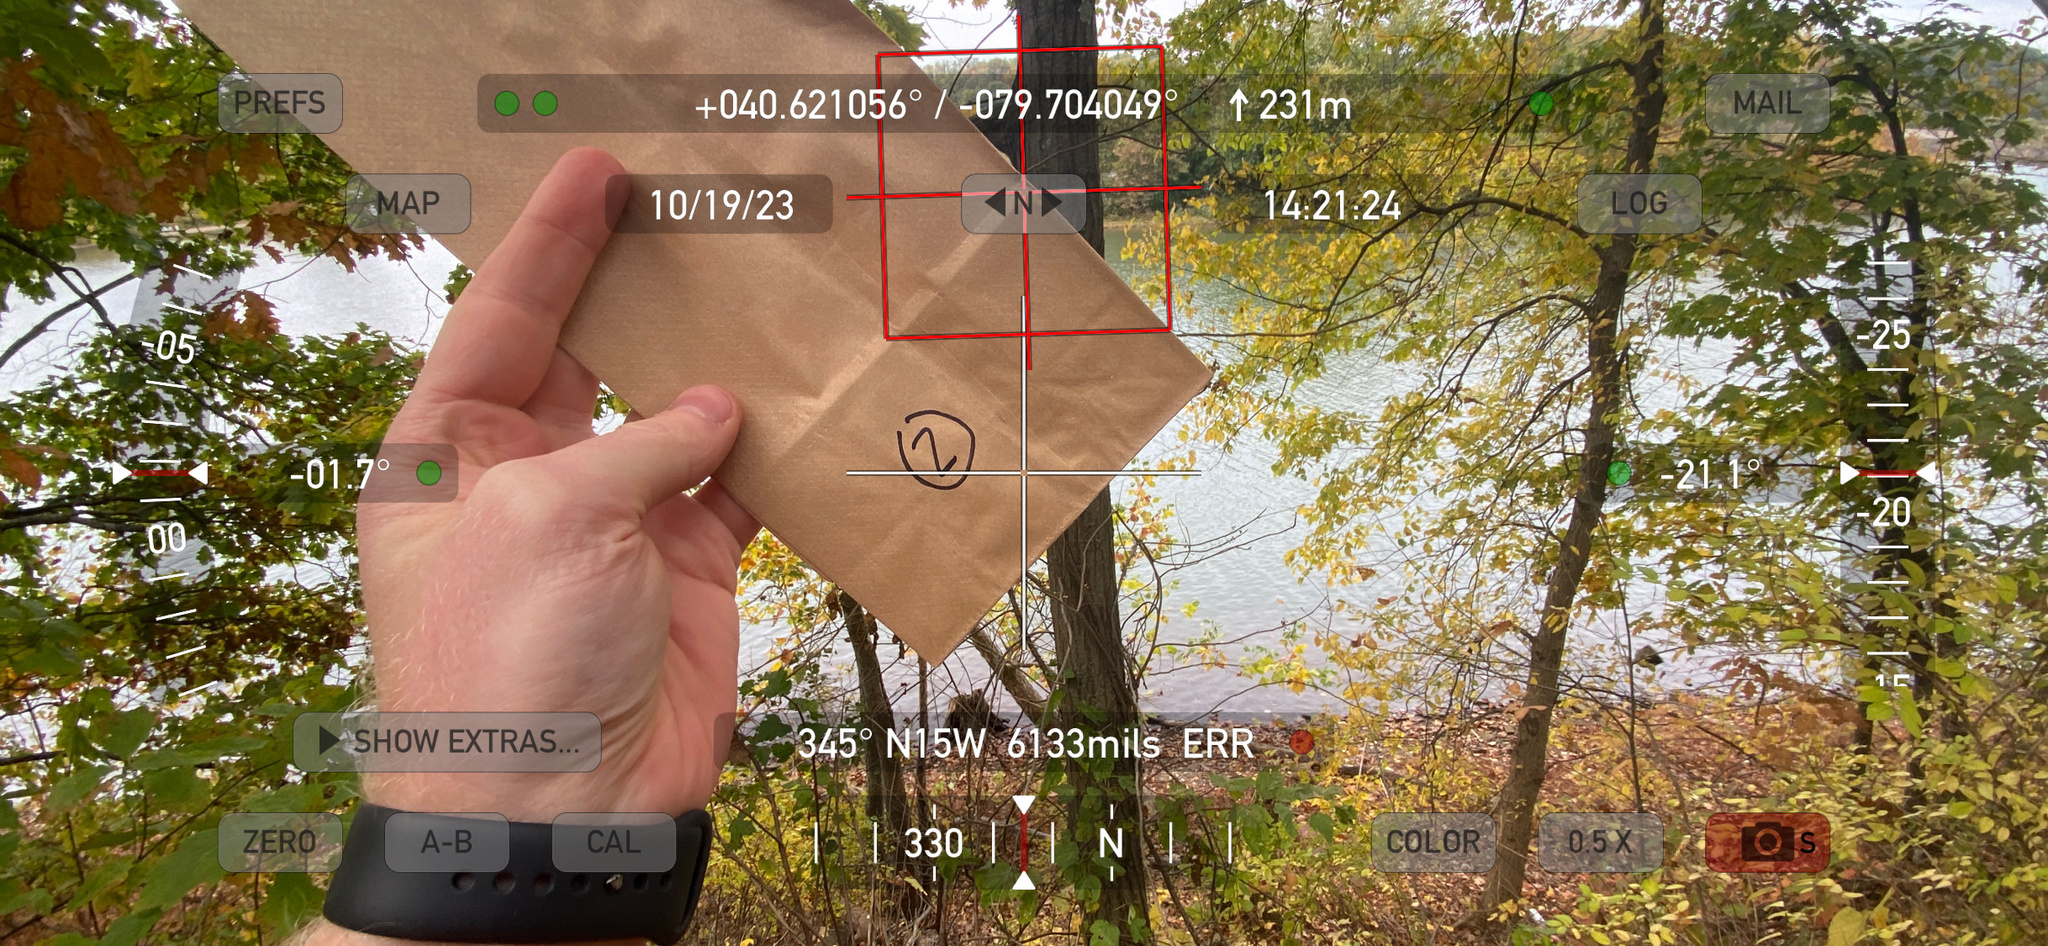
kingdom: Plantae
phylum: Tracheophyta
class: Magnoliopsida
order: Sapindales
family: Anacardiaceae
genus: Toxicodendron
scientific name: Toxicodendron radicans
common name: Poison ivy
